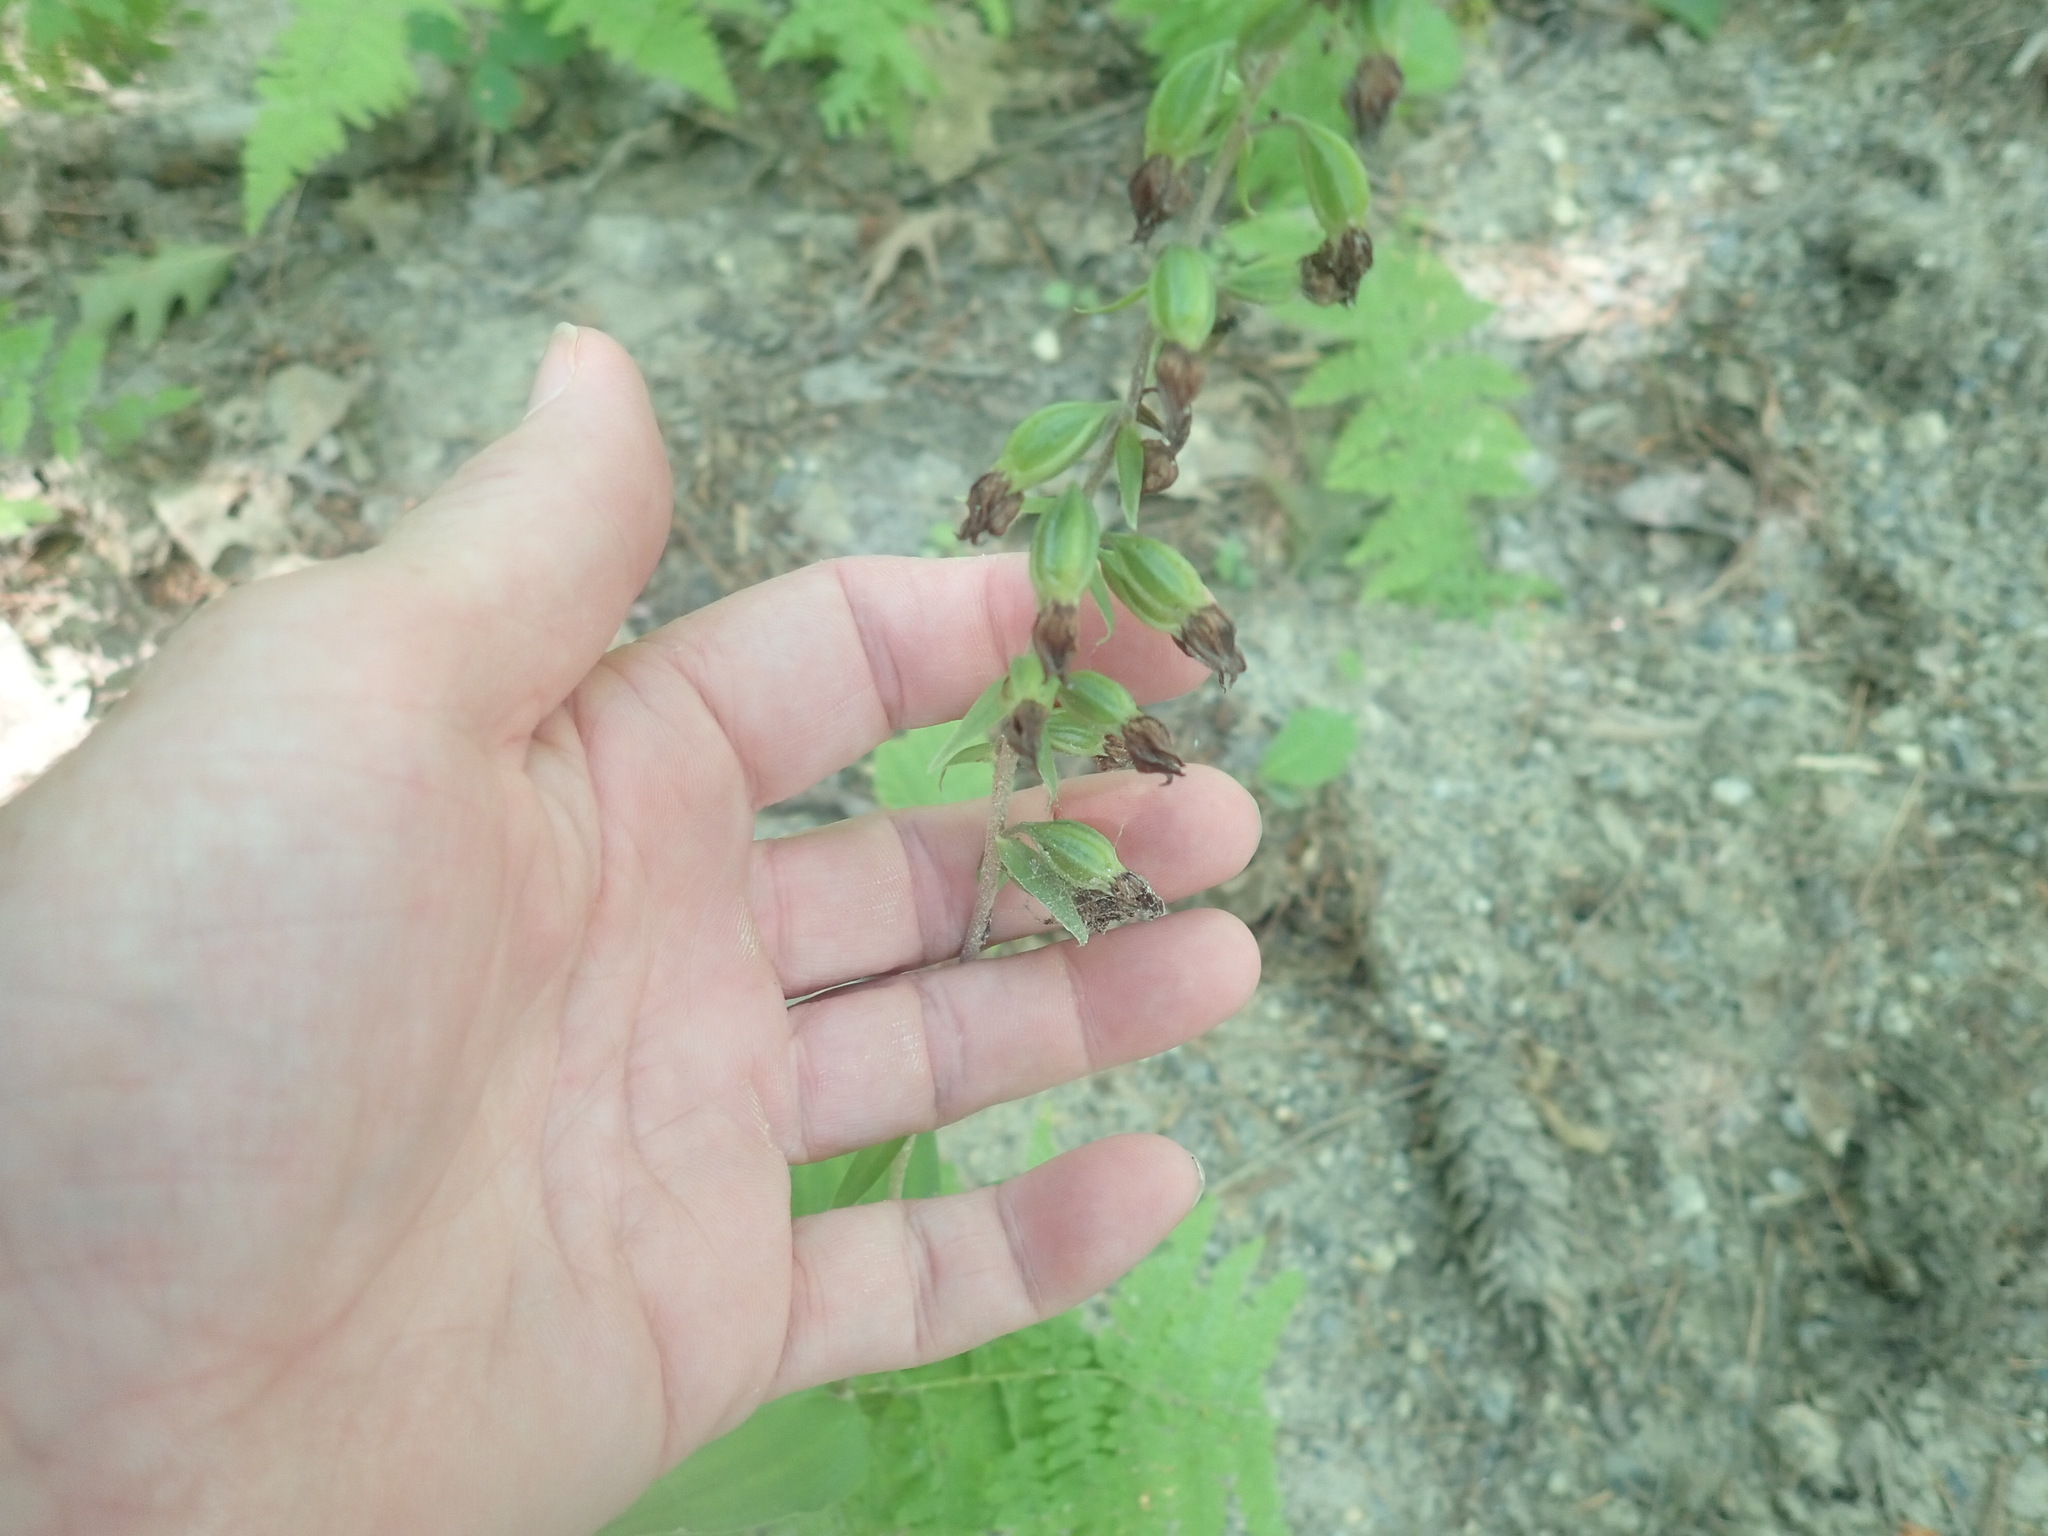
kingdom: Plantae
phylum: Tracheophyta
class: Liliopsida
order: Asparagales
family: Orchidaceae
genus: Epipactis
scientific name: Epipactis helleborine
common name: Broad-leaved helleborine
